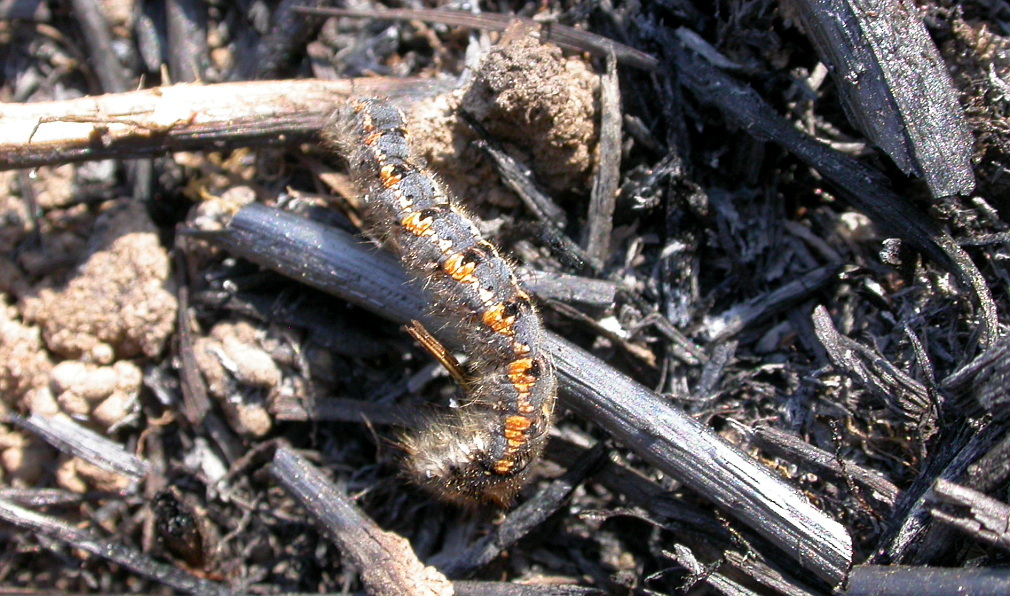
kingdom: Animalia
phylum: Arthropoda
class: Insecta
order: Lepidoptera
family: Lasiocampidae
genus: Euthrix
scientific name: Euthrix potatoria
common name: Drinker
